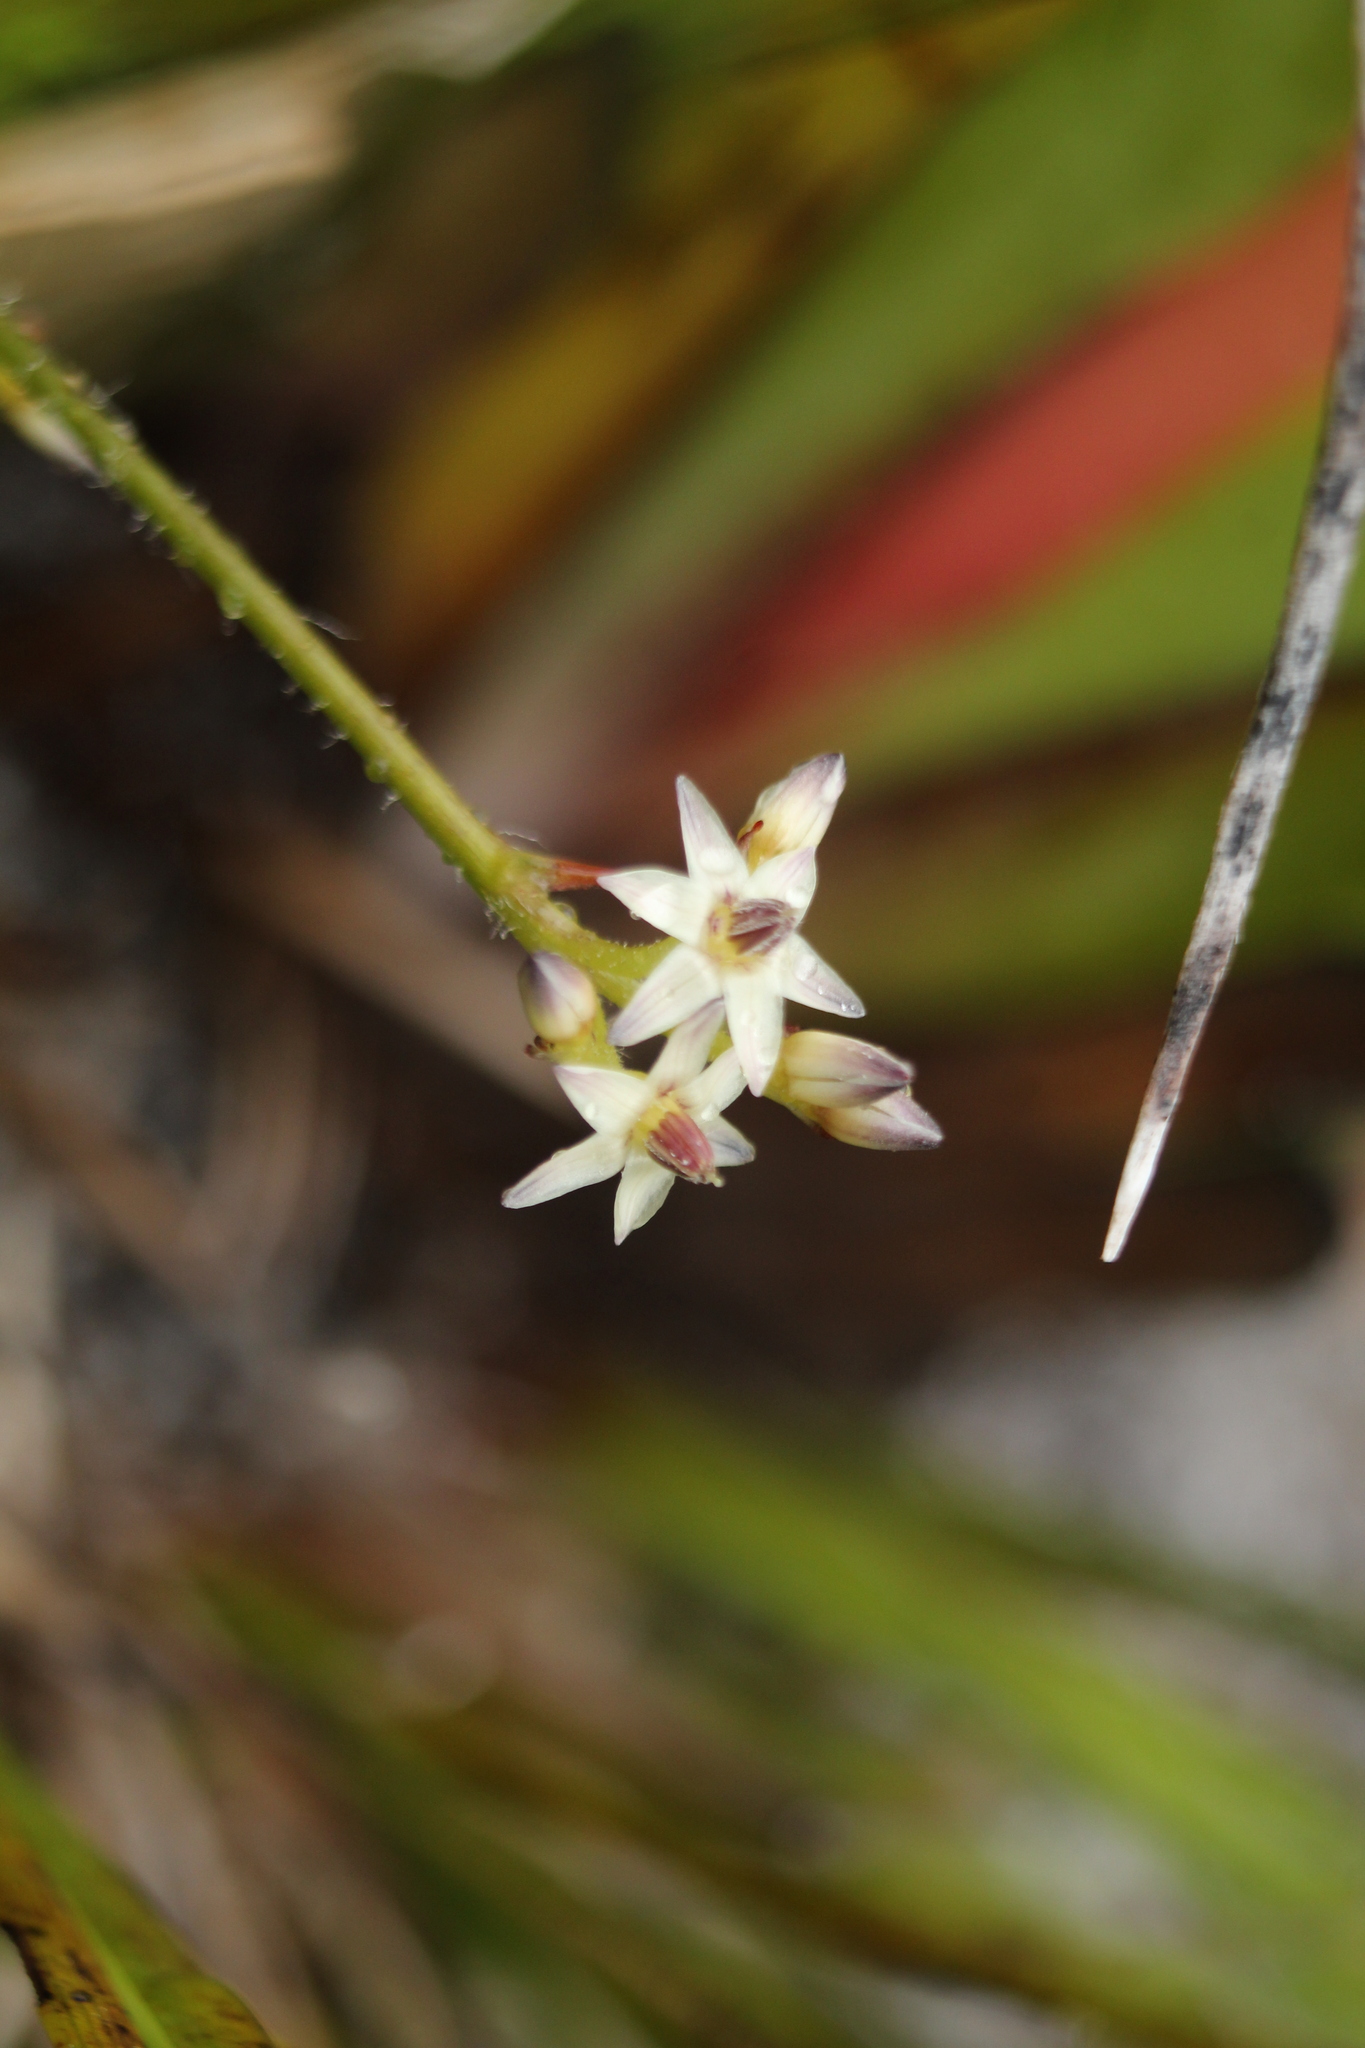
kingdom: Plantae
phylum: Tracheophyta
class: Liliopsida
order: Commelinales
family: Haemodoraceae
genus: Phlebocarya
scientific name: Phlebocarya ciliata
